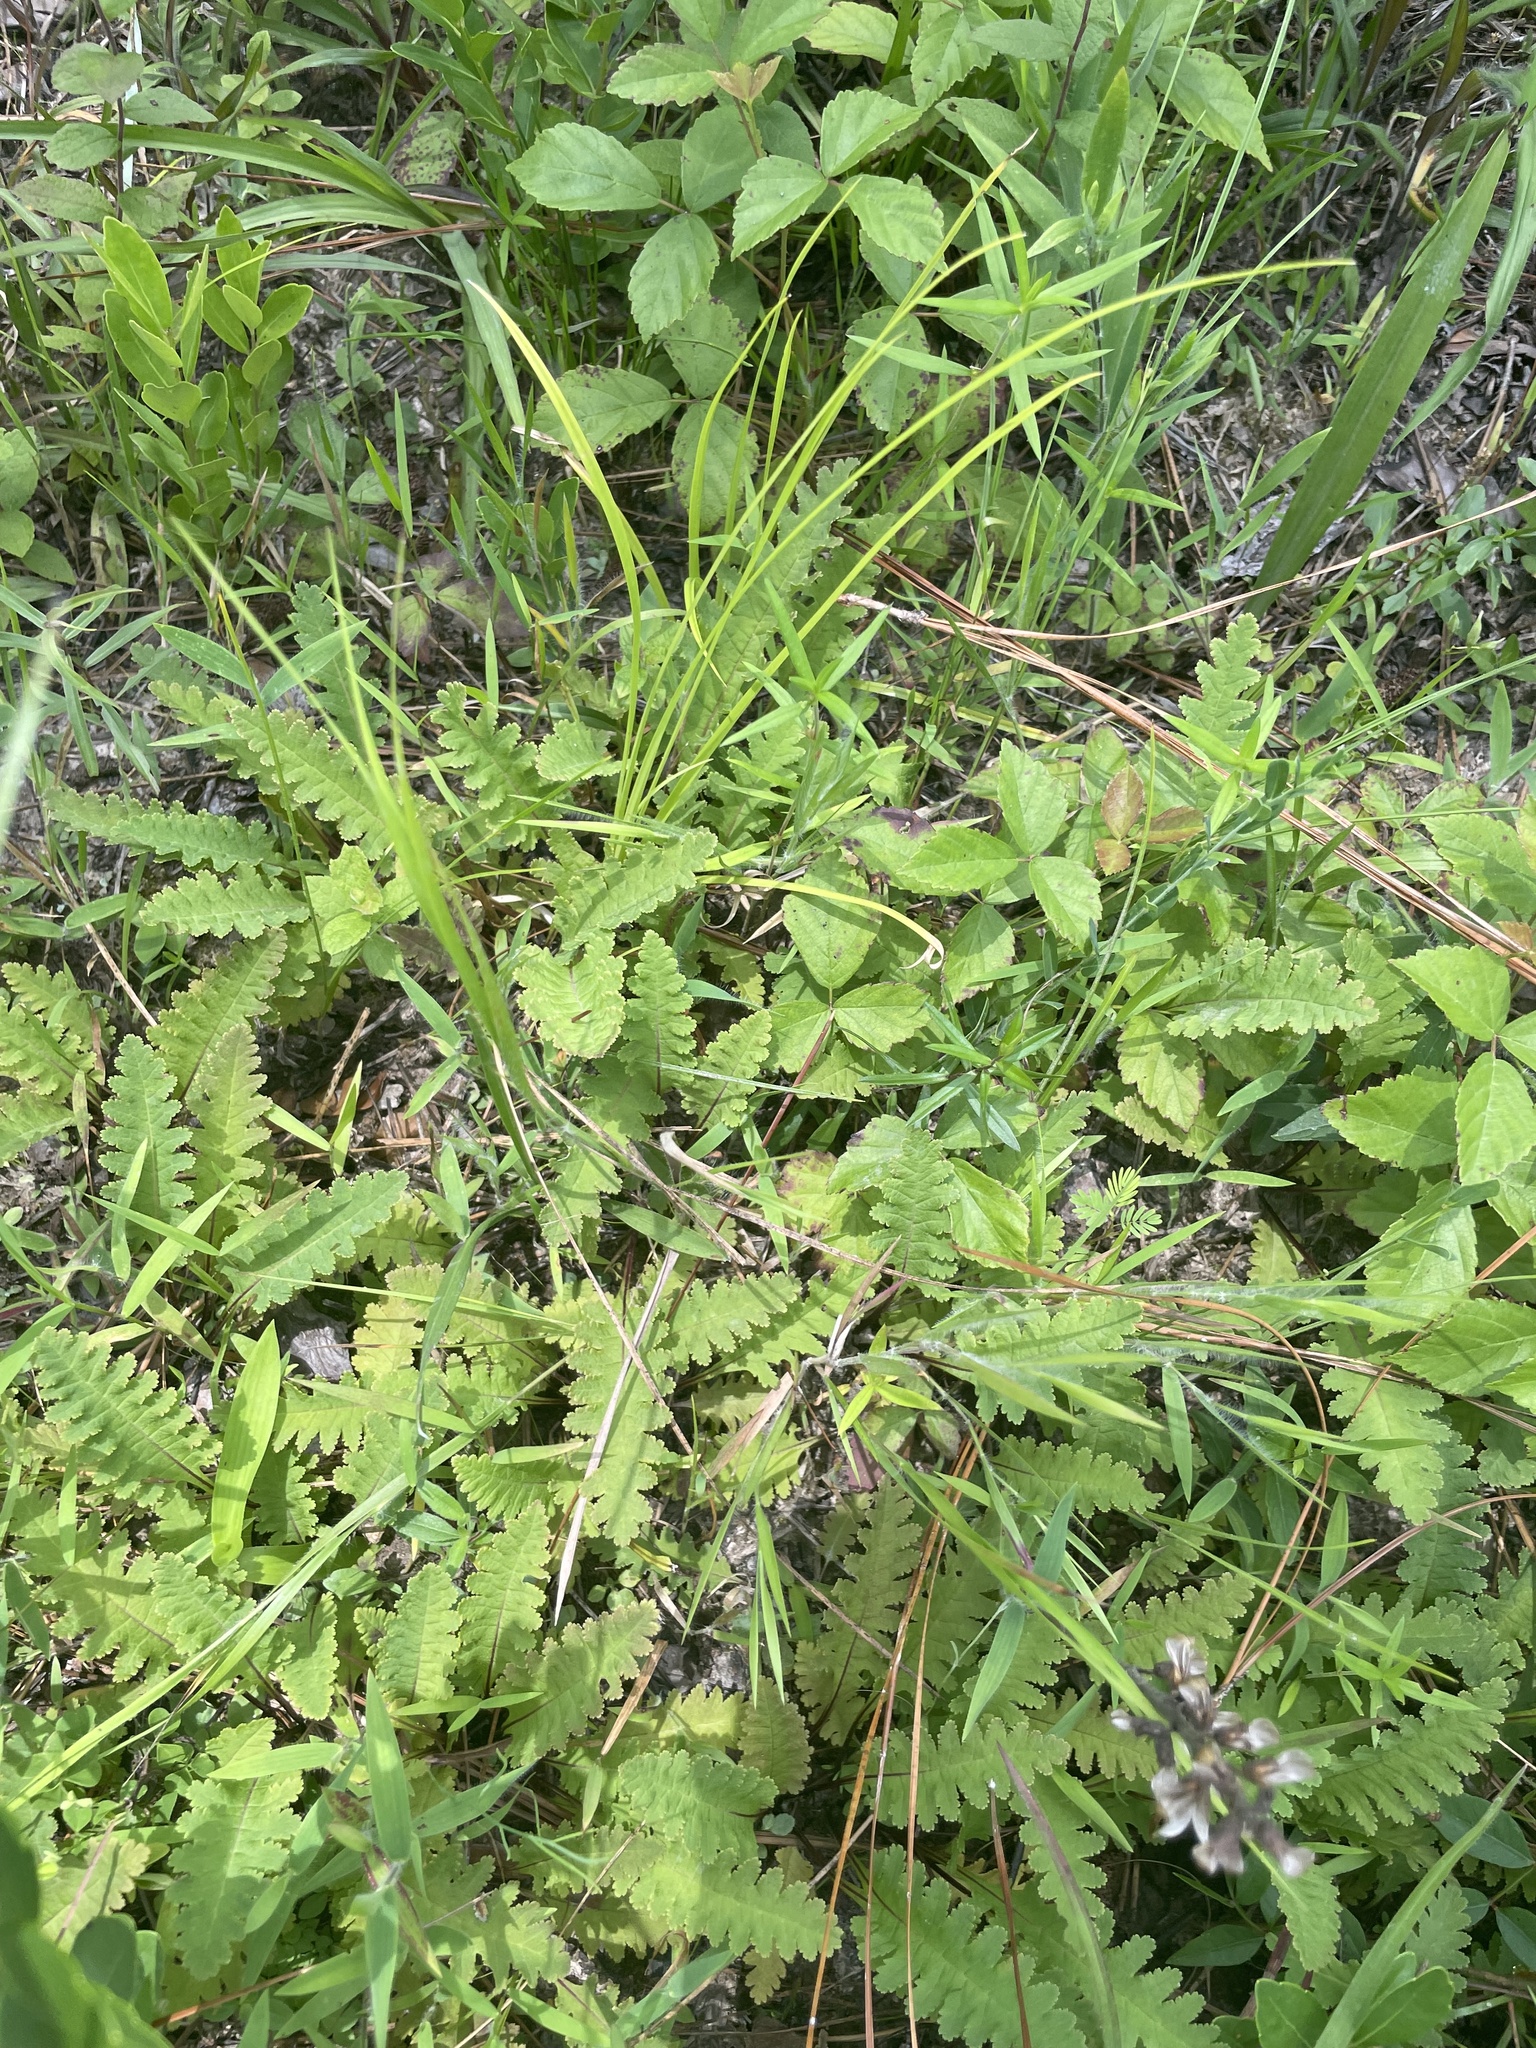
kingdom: Plantae
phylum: Tracheophyta
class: Magnoliopsida
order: Lamiales
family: Orobanchaceae
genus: Pedicularis
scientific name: Pedicularis canadensis
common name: Early lousewort
